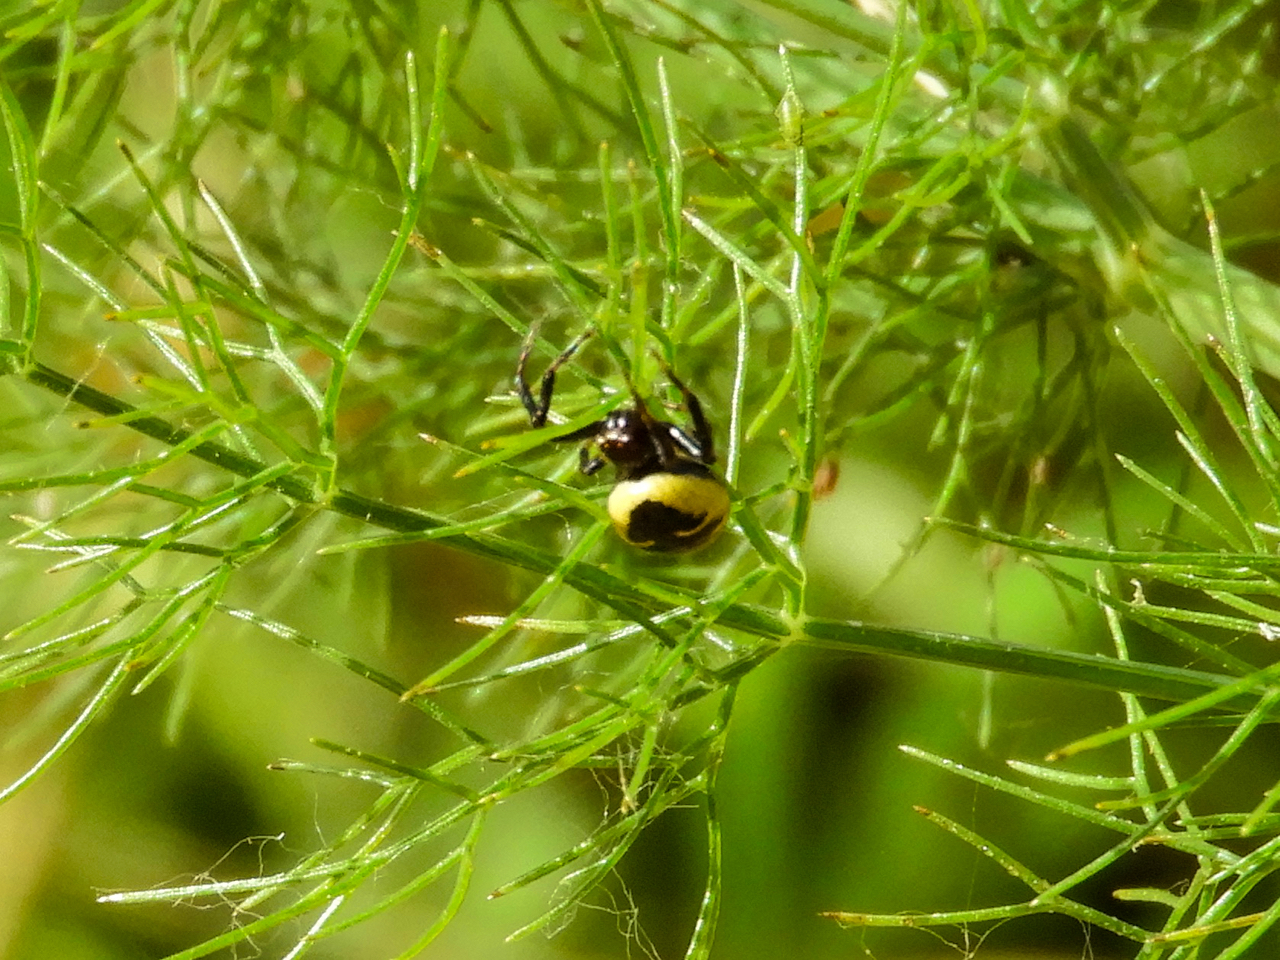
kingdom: Animalia
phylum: Arthropoda
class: Arachnida
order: Araneae
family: Thomisidae
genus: Synema
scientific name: Synema globosum
